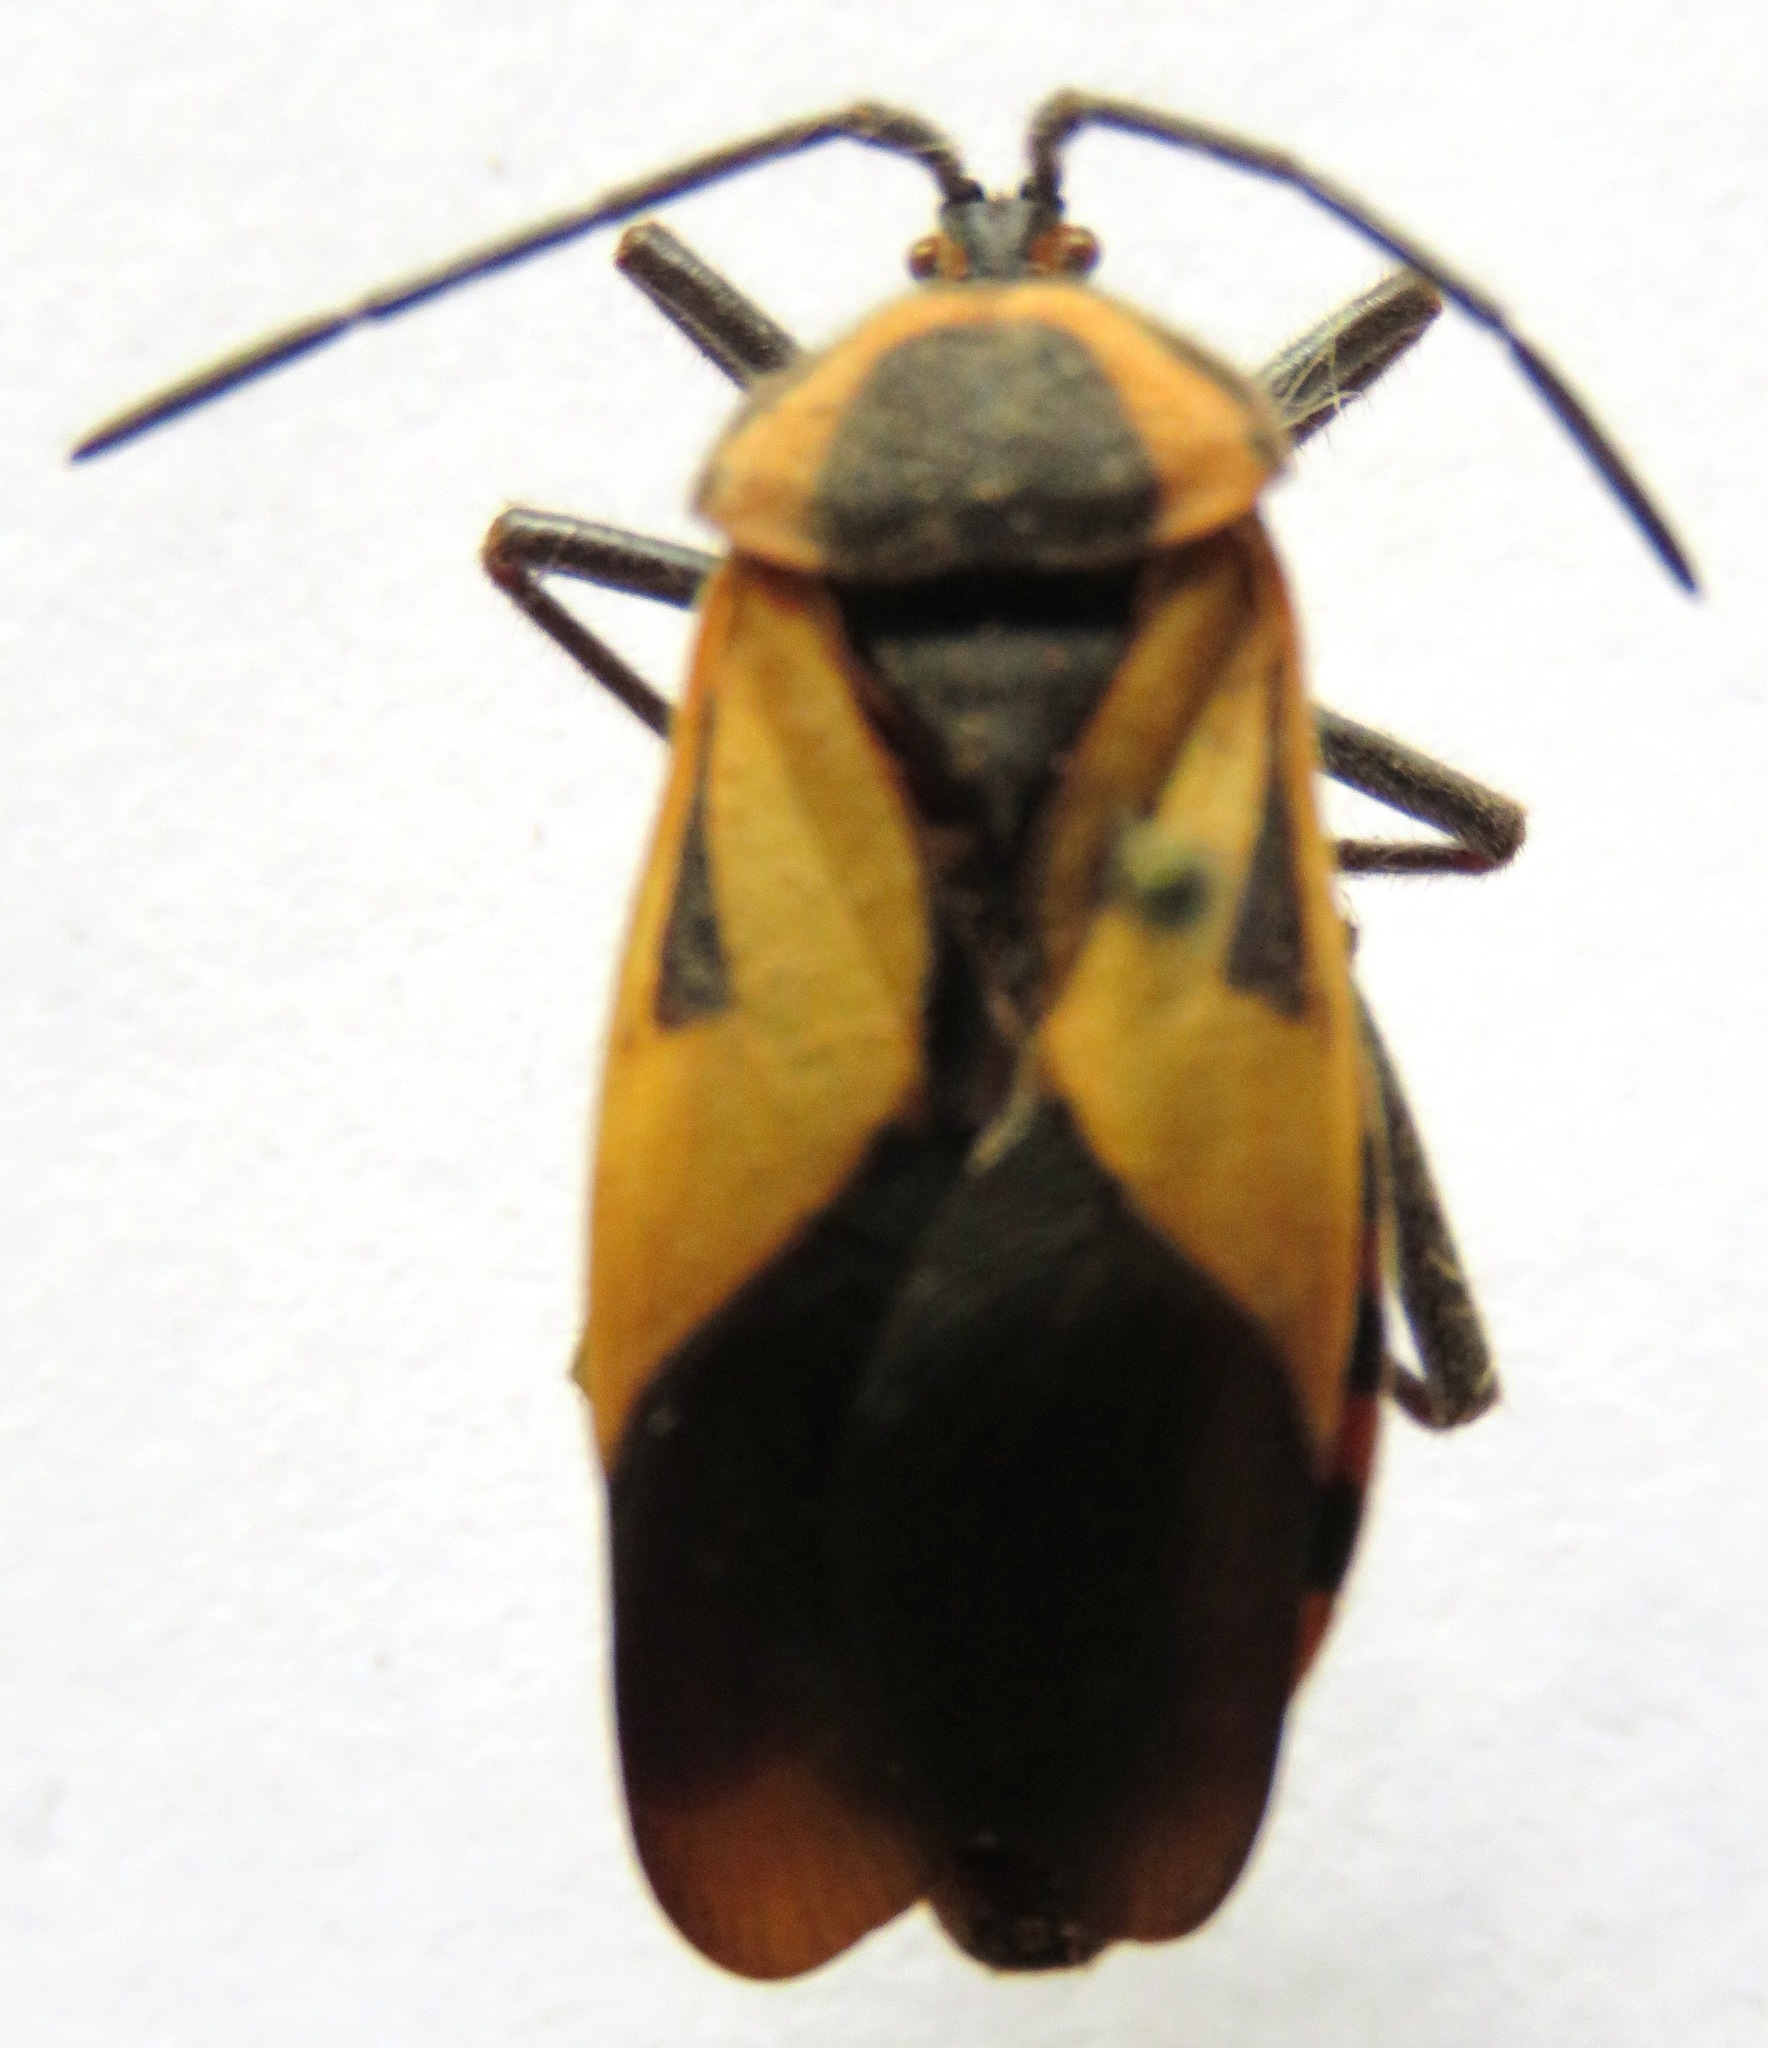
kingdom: Animalia
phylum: Arthropoda
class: Insecta
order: Hemiptera
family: Coreidae
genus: Sephina
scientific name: Sephina vinula
